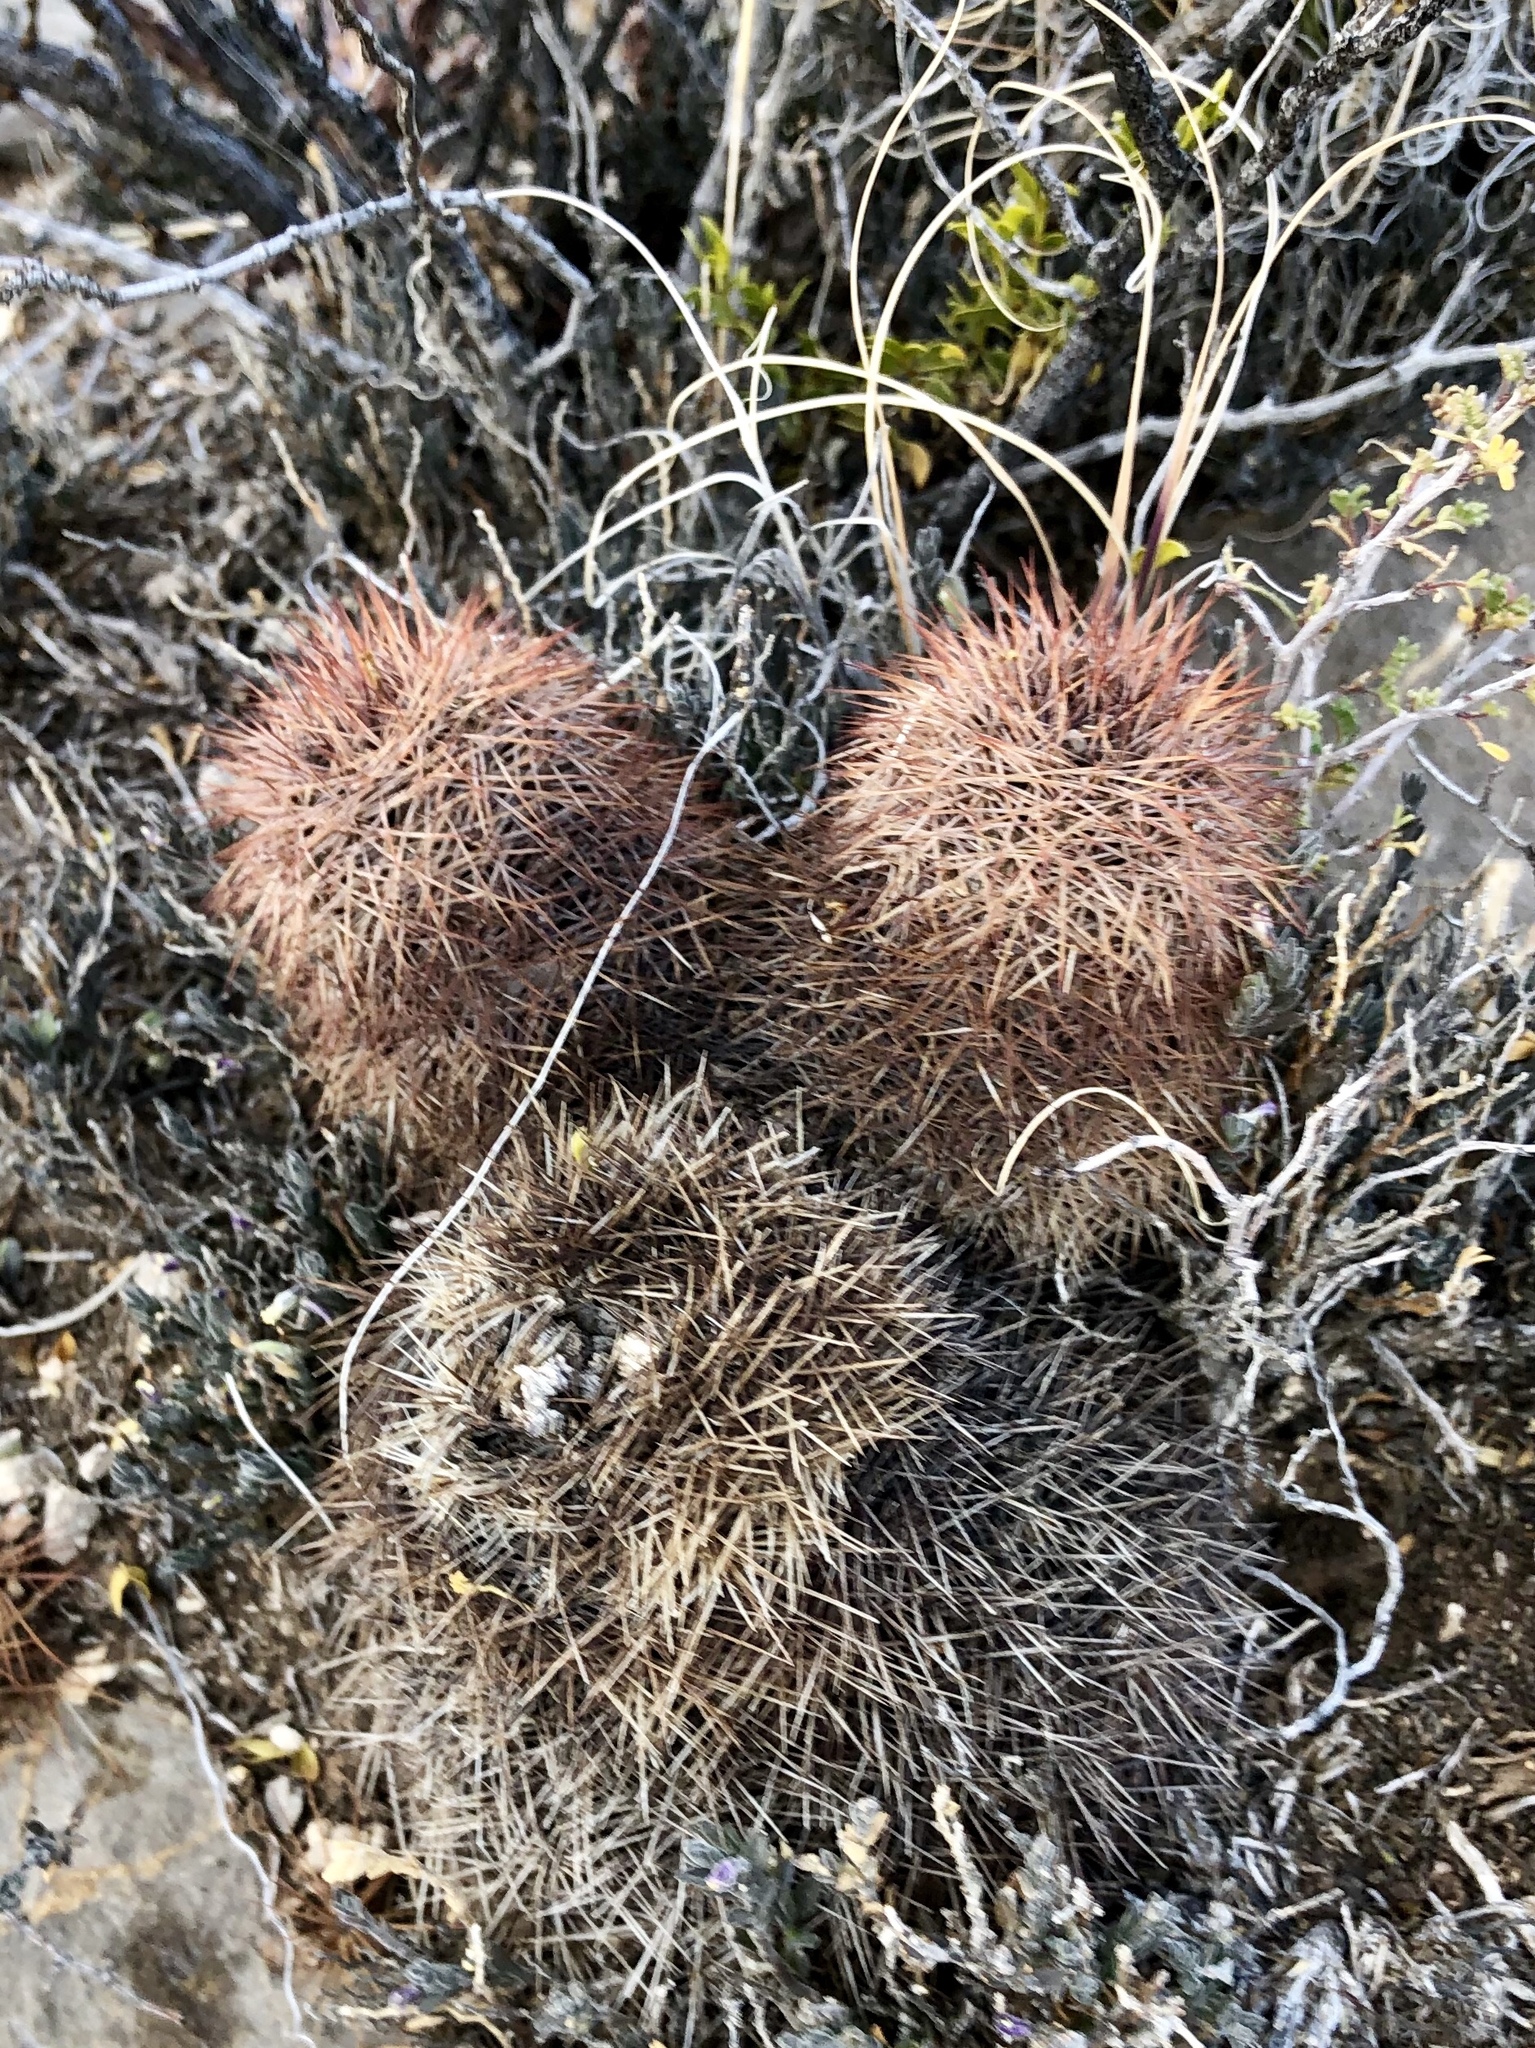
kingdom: Plantae
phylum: Tracheophyta
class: Magnoliopsida
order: Caryophyllales
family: Cactaceae
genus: Echinocereus
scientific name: Echinocereus dasyacanthus
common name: Spiny hedgehog cactus
